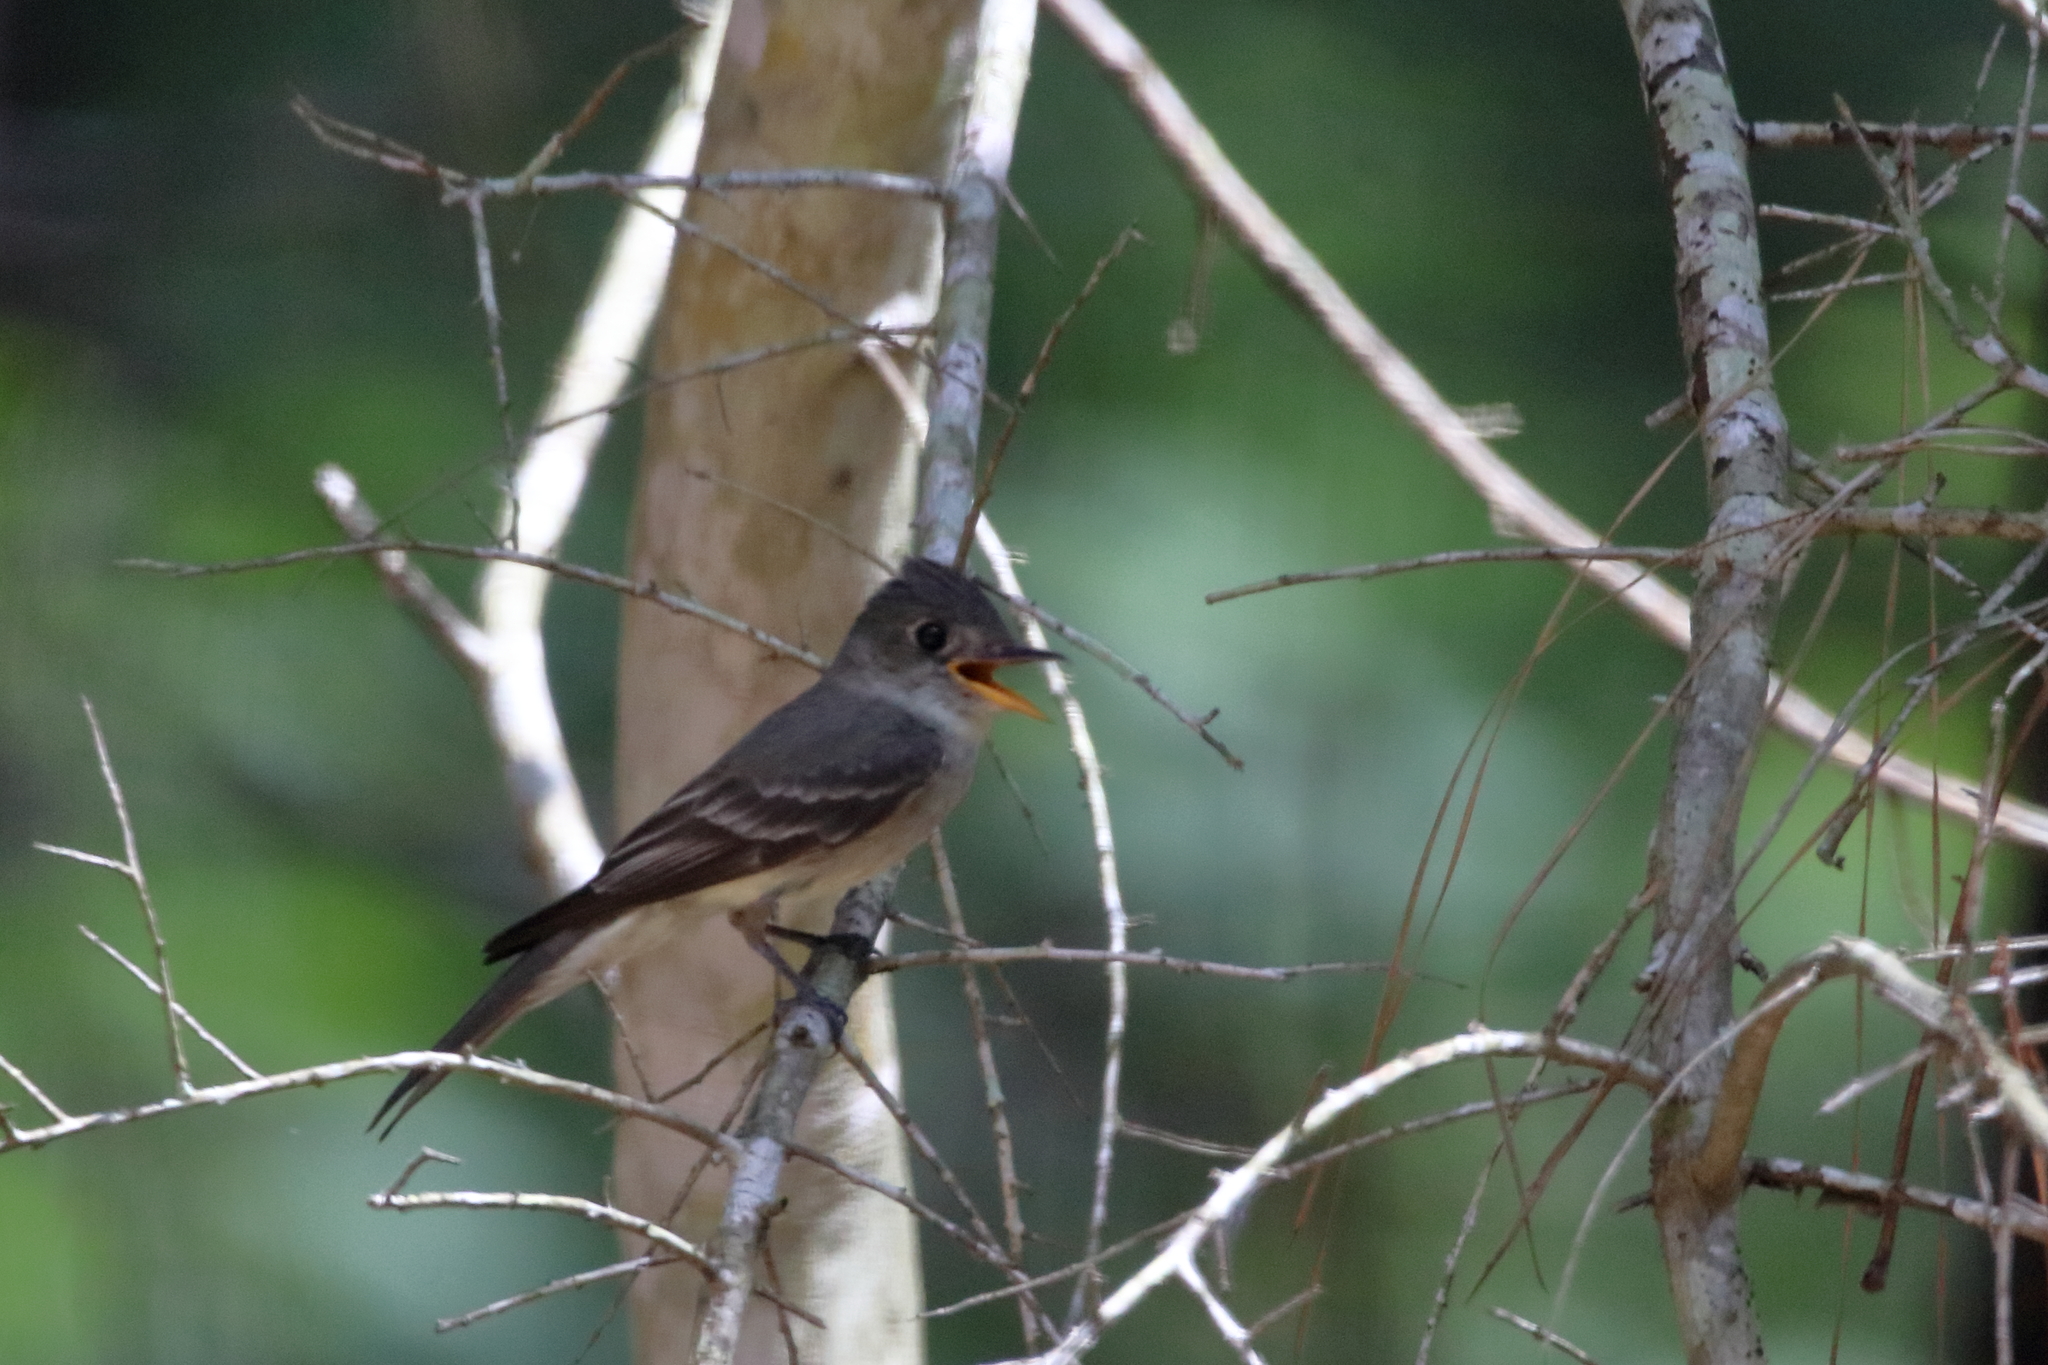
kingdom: Animalia
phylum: Chordata
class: Aves
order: Passeriformes
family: Tyrannidae
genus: Contopus
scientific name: Contopus virens
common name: Eastern wood-pewee
